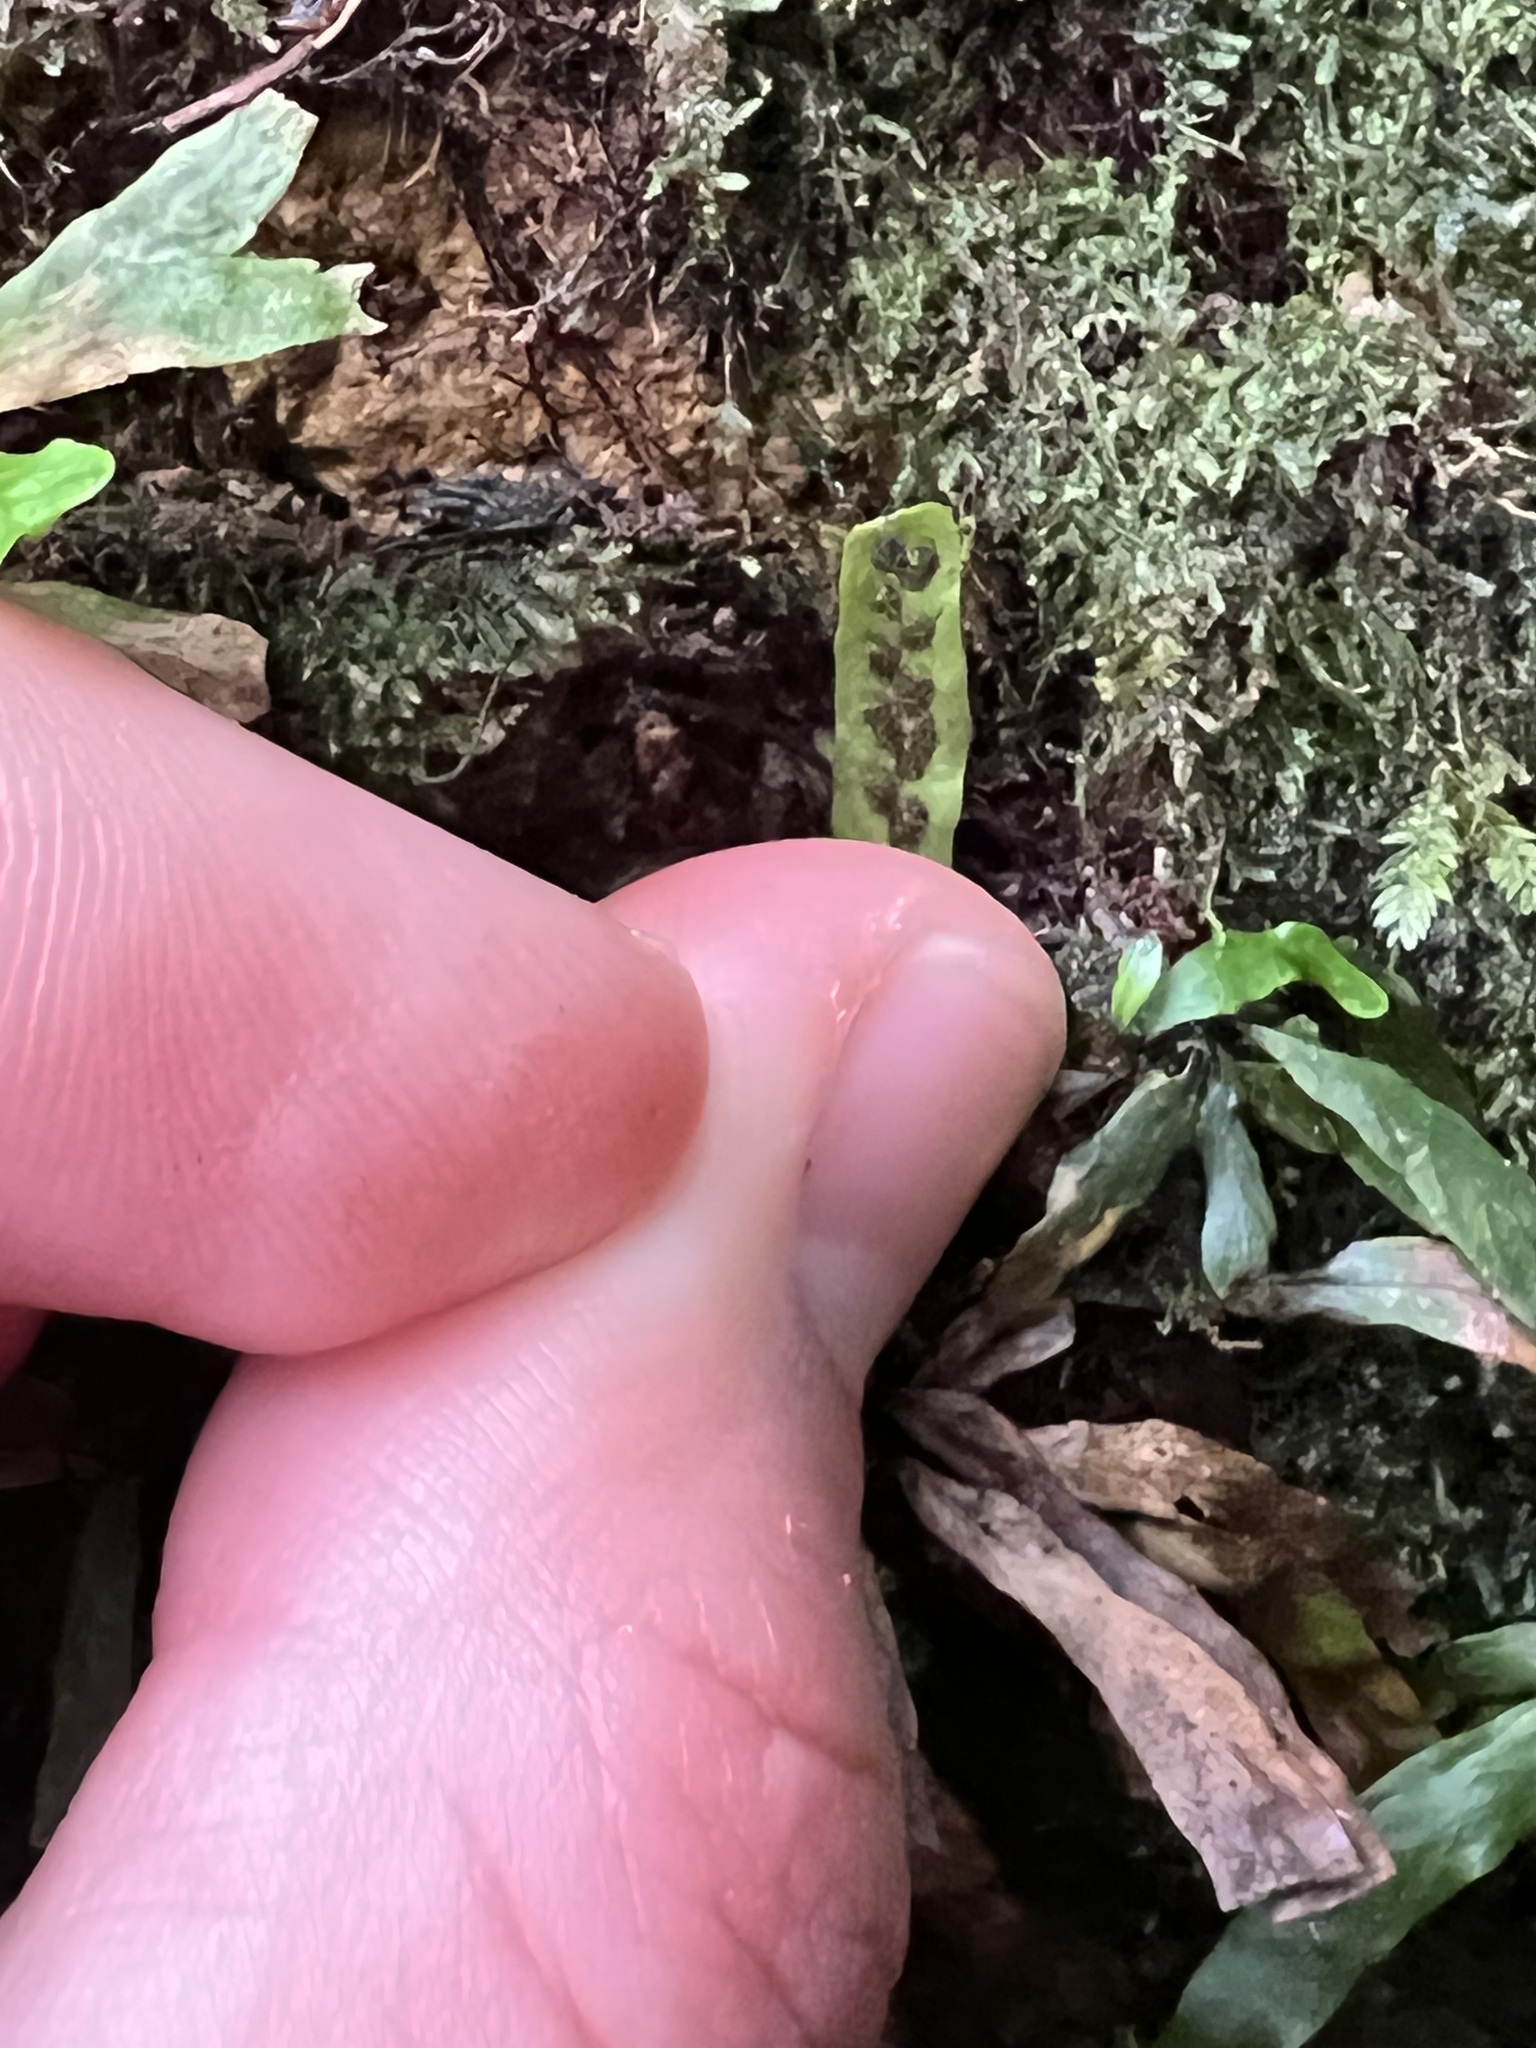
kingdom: Plantae
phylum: Tracheophyta
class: Polypodiopsida
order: Polypodiales
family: Polypodiaceae
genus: Notogrammitis
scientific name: Notogrammitis ciliata
